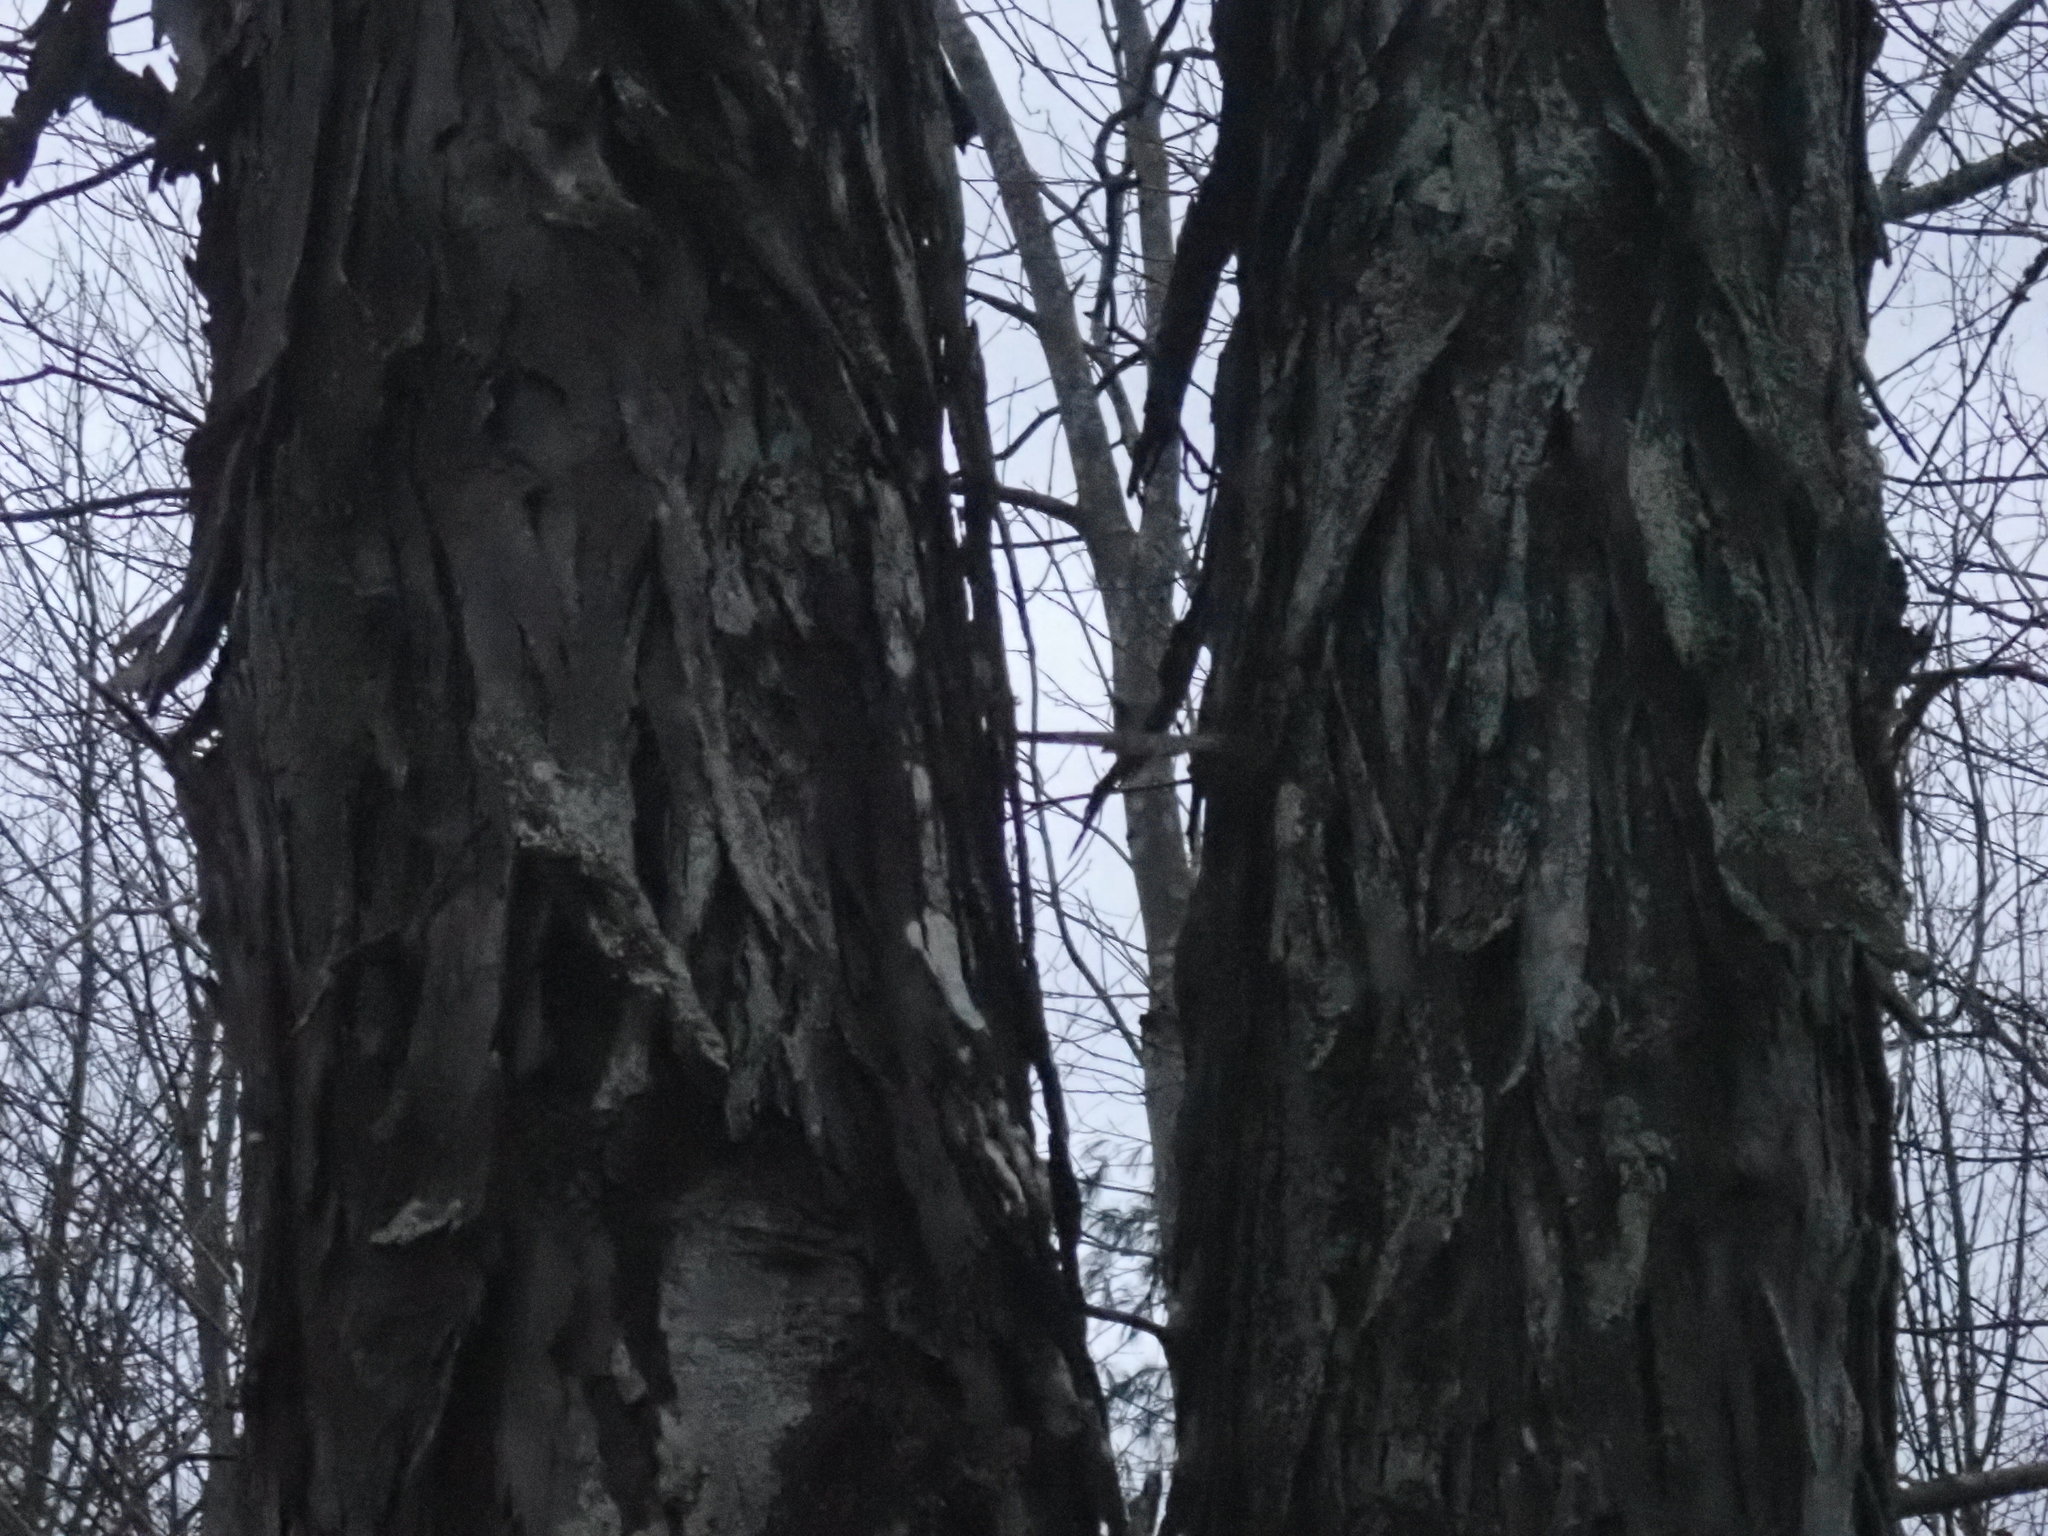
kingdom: Plantae
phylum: Tracheophyta
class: Magnoliopsida
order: Fagales
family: Juglandaceae
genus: Carya
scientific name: Carya ovata
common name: Shagbark hickory
